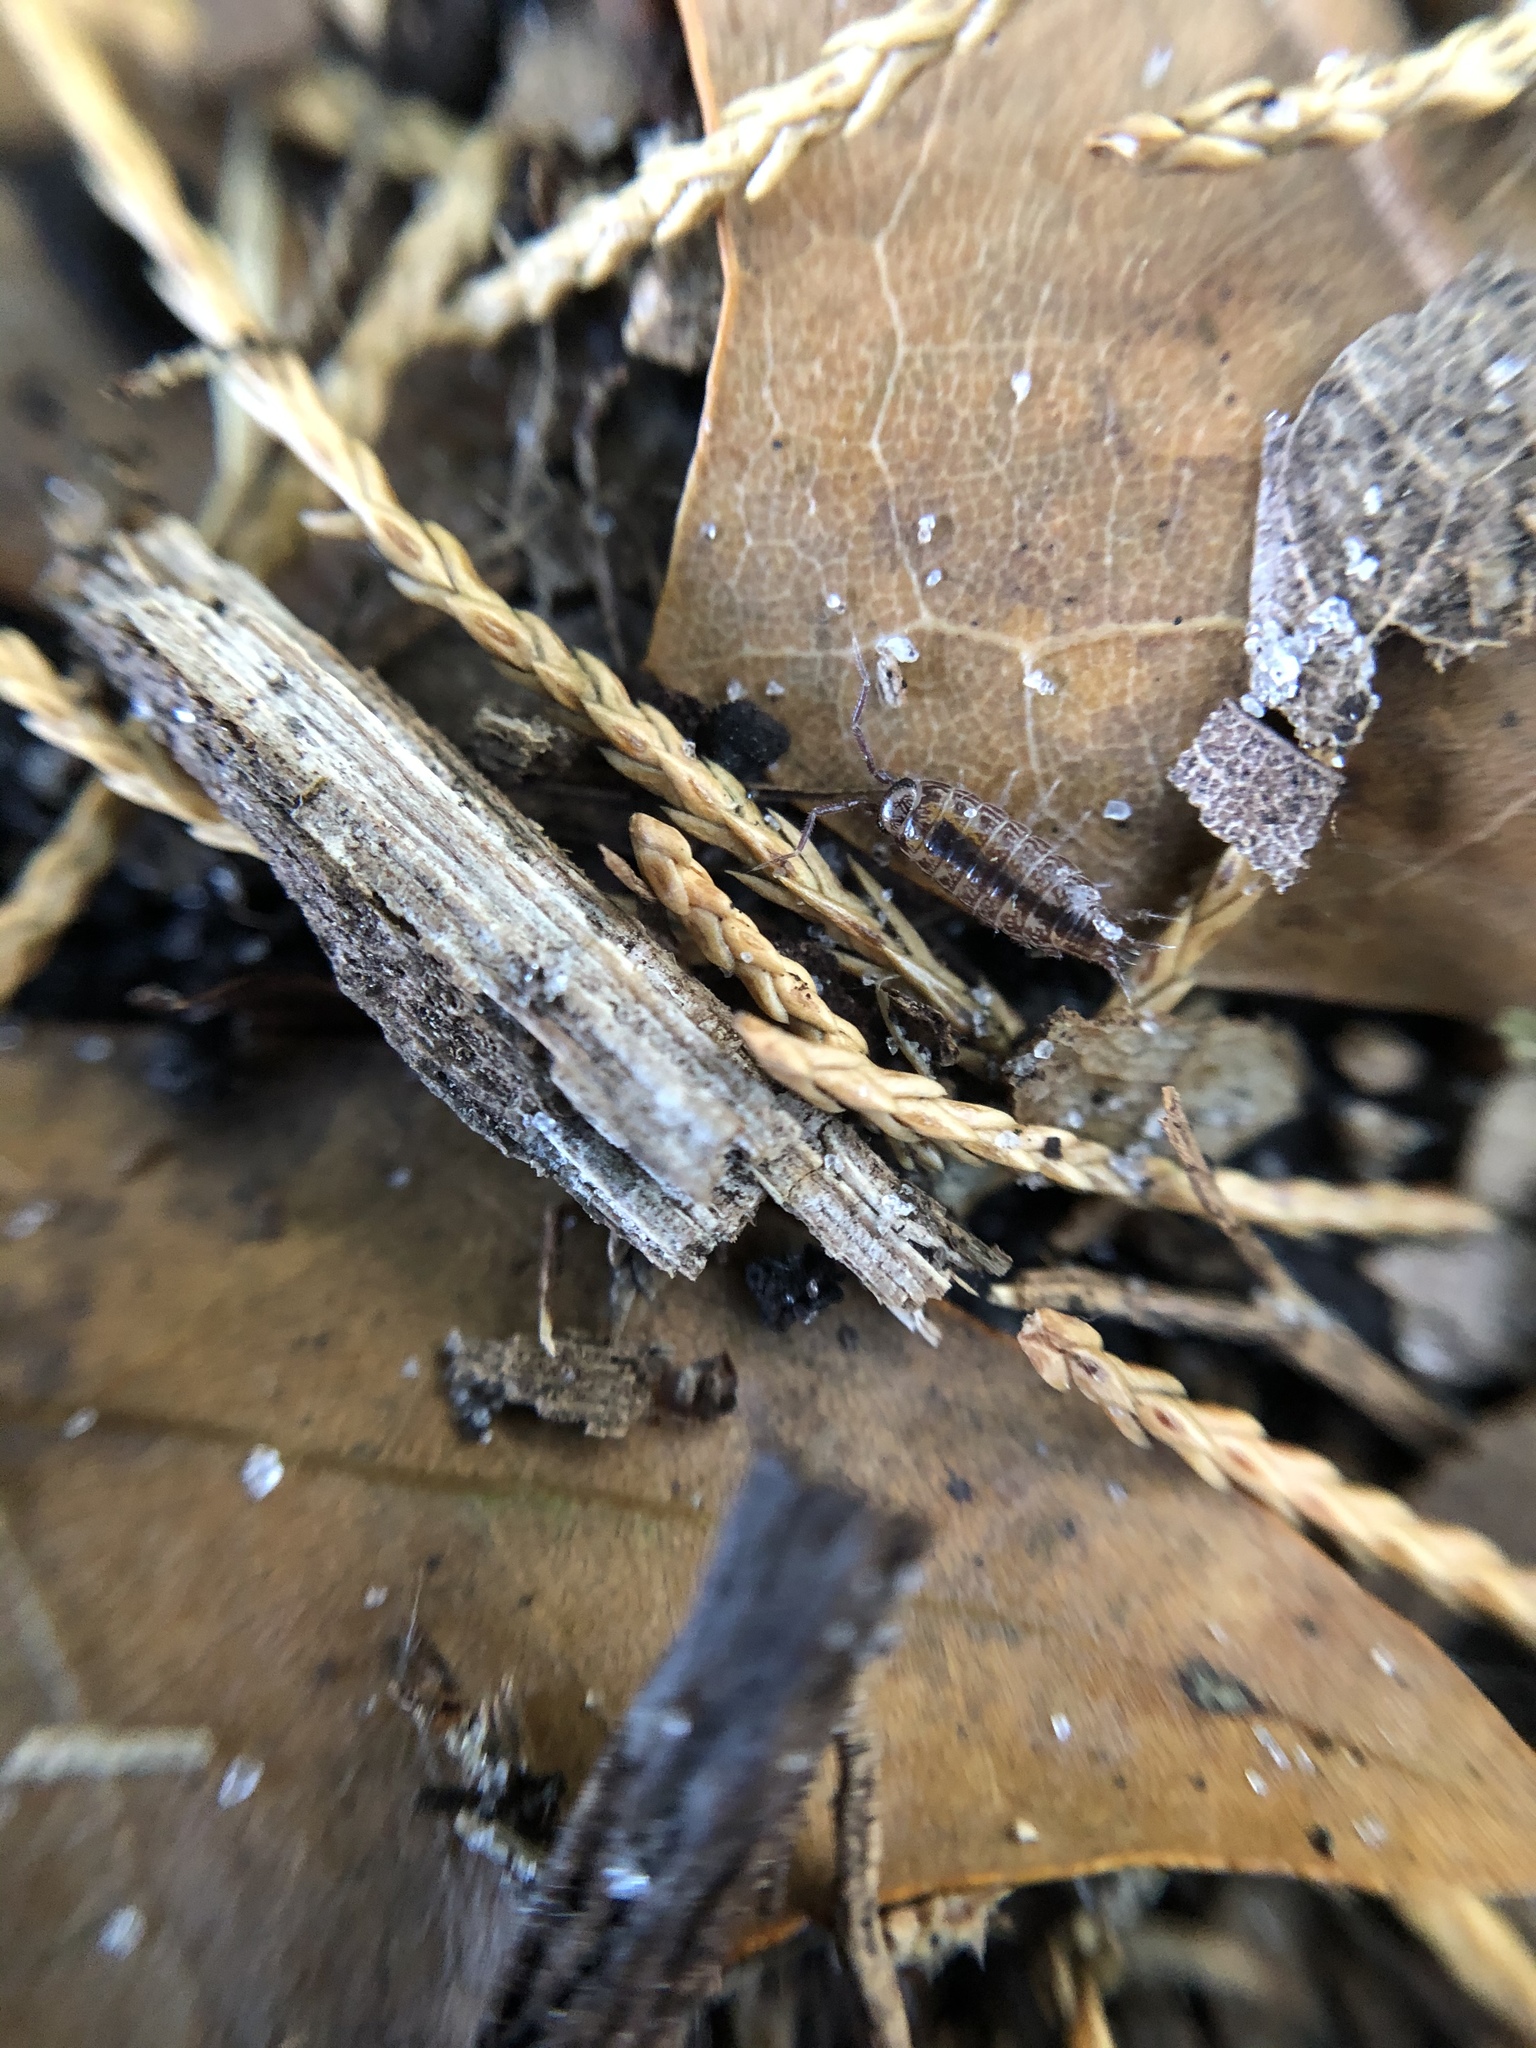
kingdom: Animalia
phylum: Arthropoda
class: Malacostraca
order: Isopoda
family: Philosciidae
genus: Atlantoscia
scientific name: Atlantoscia floridana
